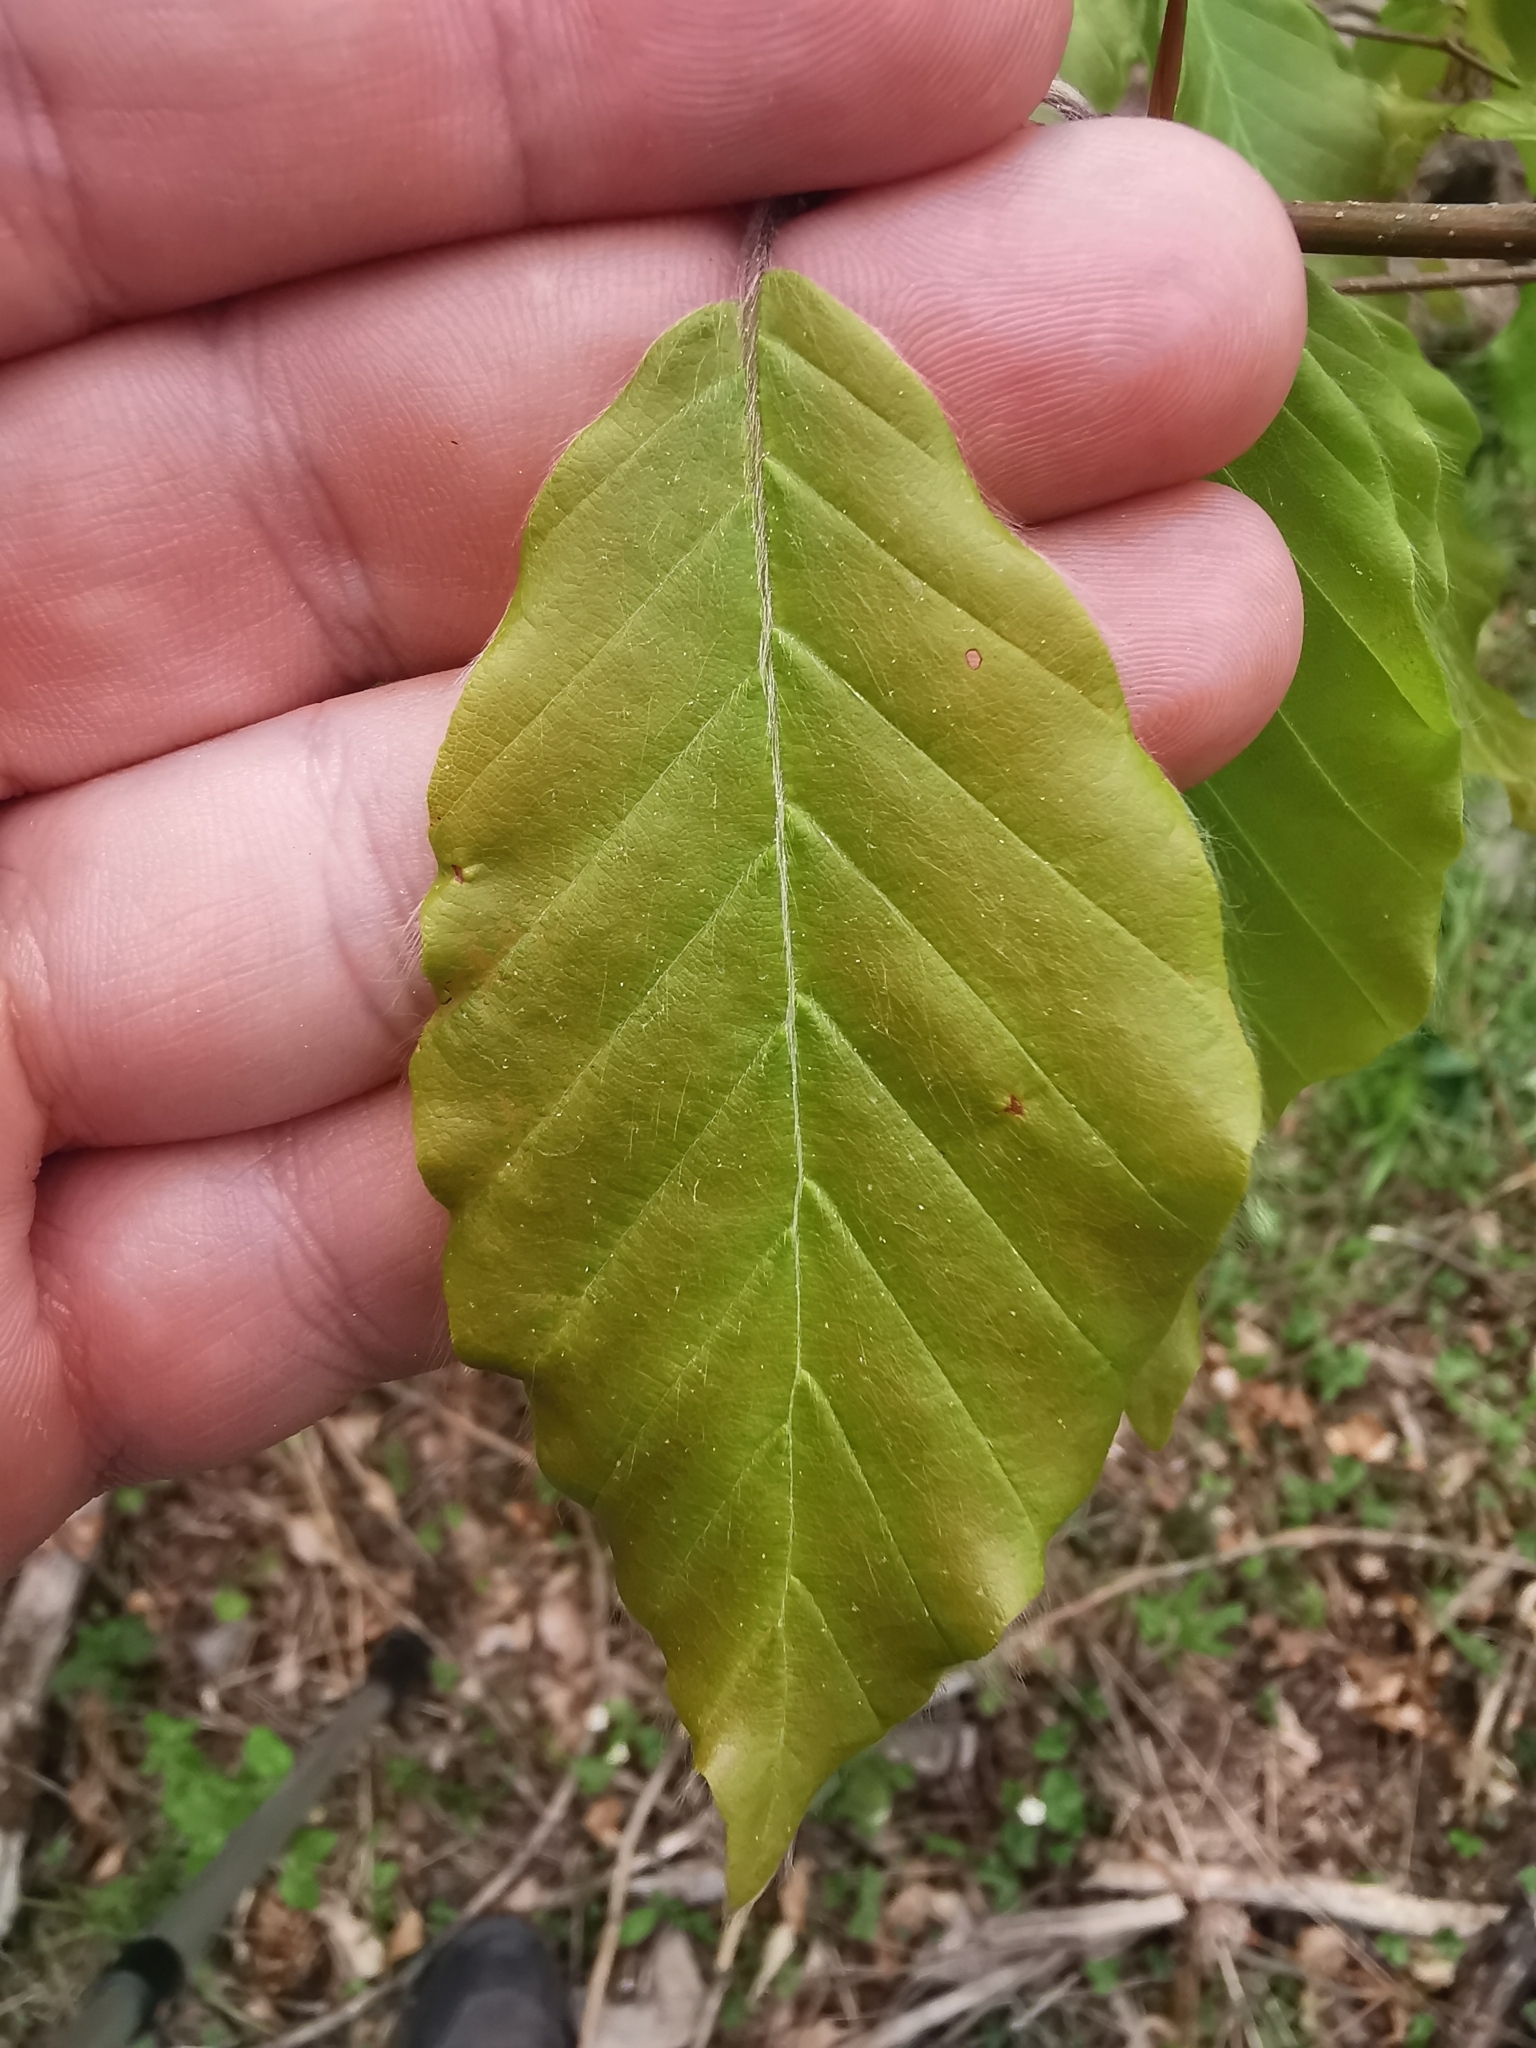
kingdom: Plantae
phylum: Tracheophyta
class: Magnoliopsida
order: Fagales
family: Fagaceae
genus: Fagus
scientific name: Fagus sylvatica
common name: Beech
